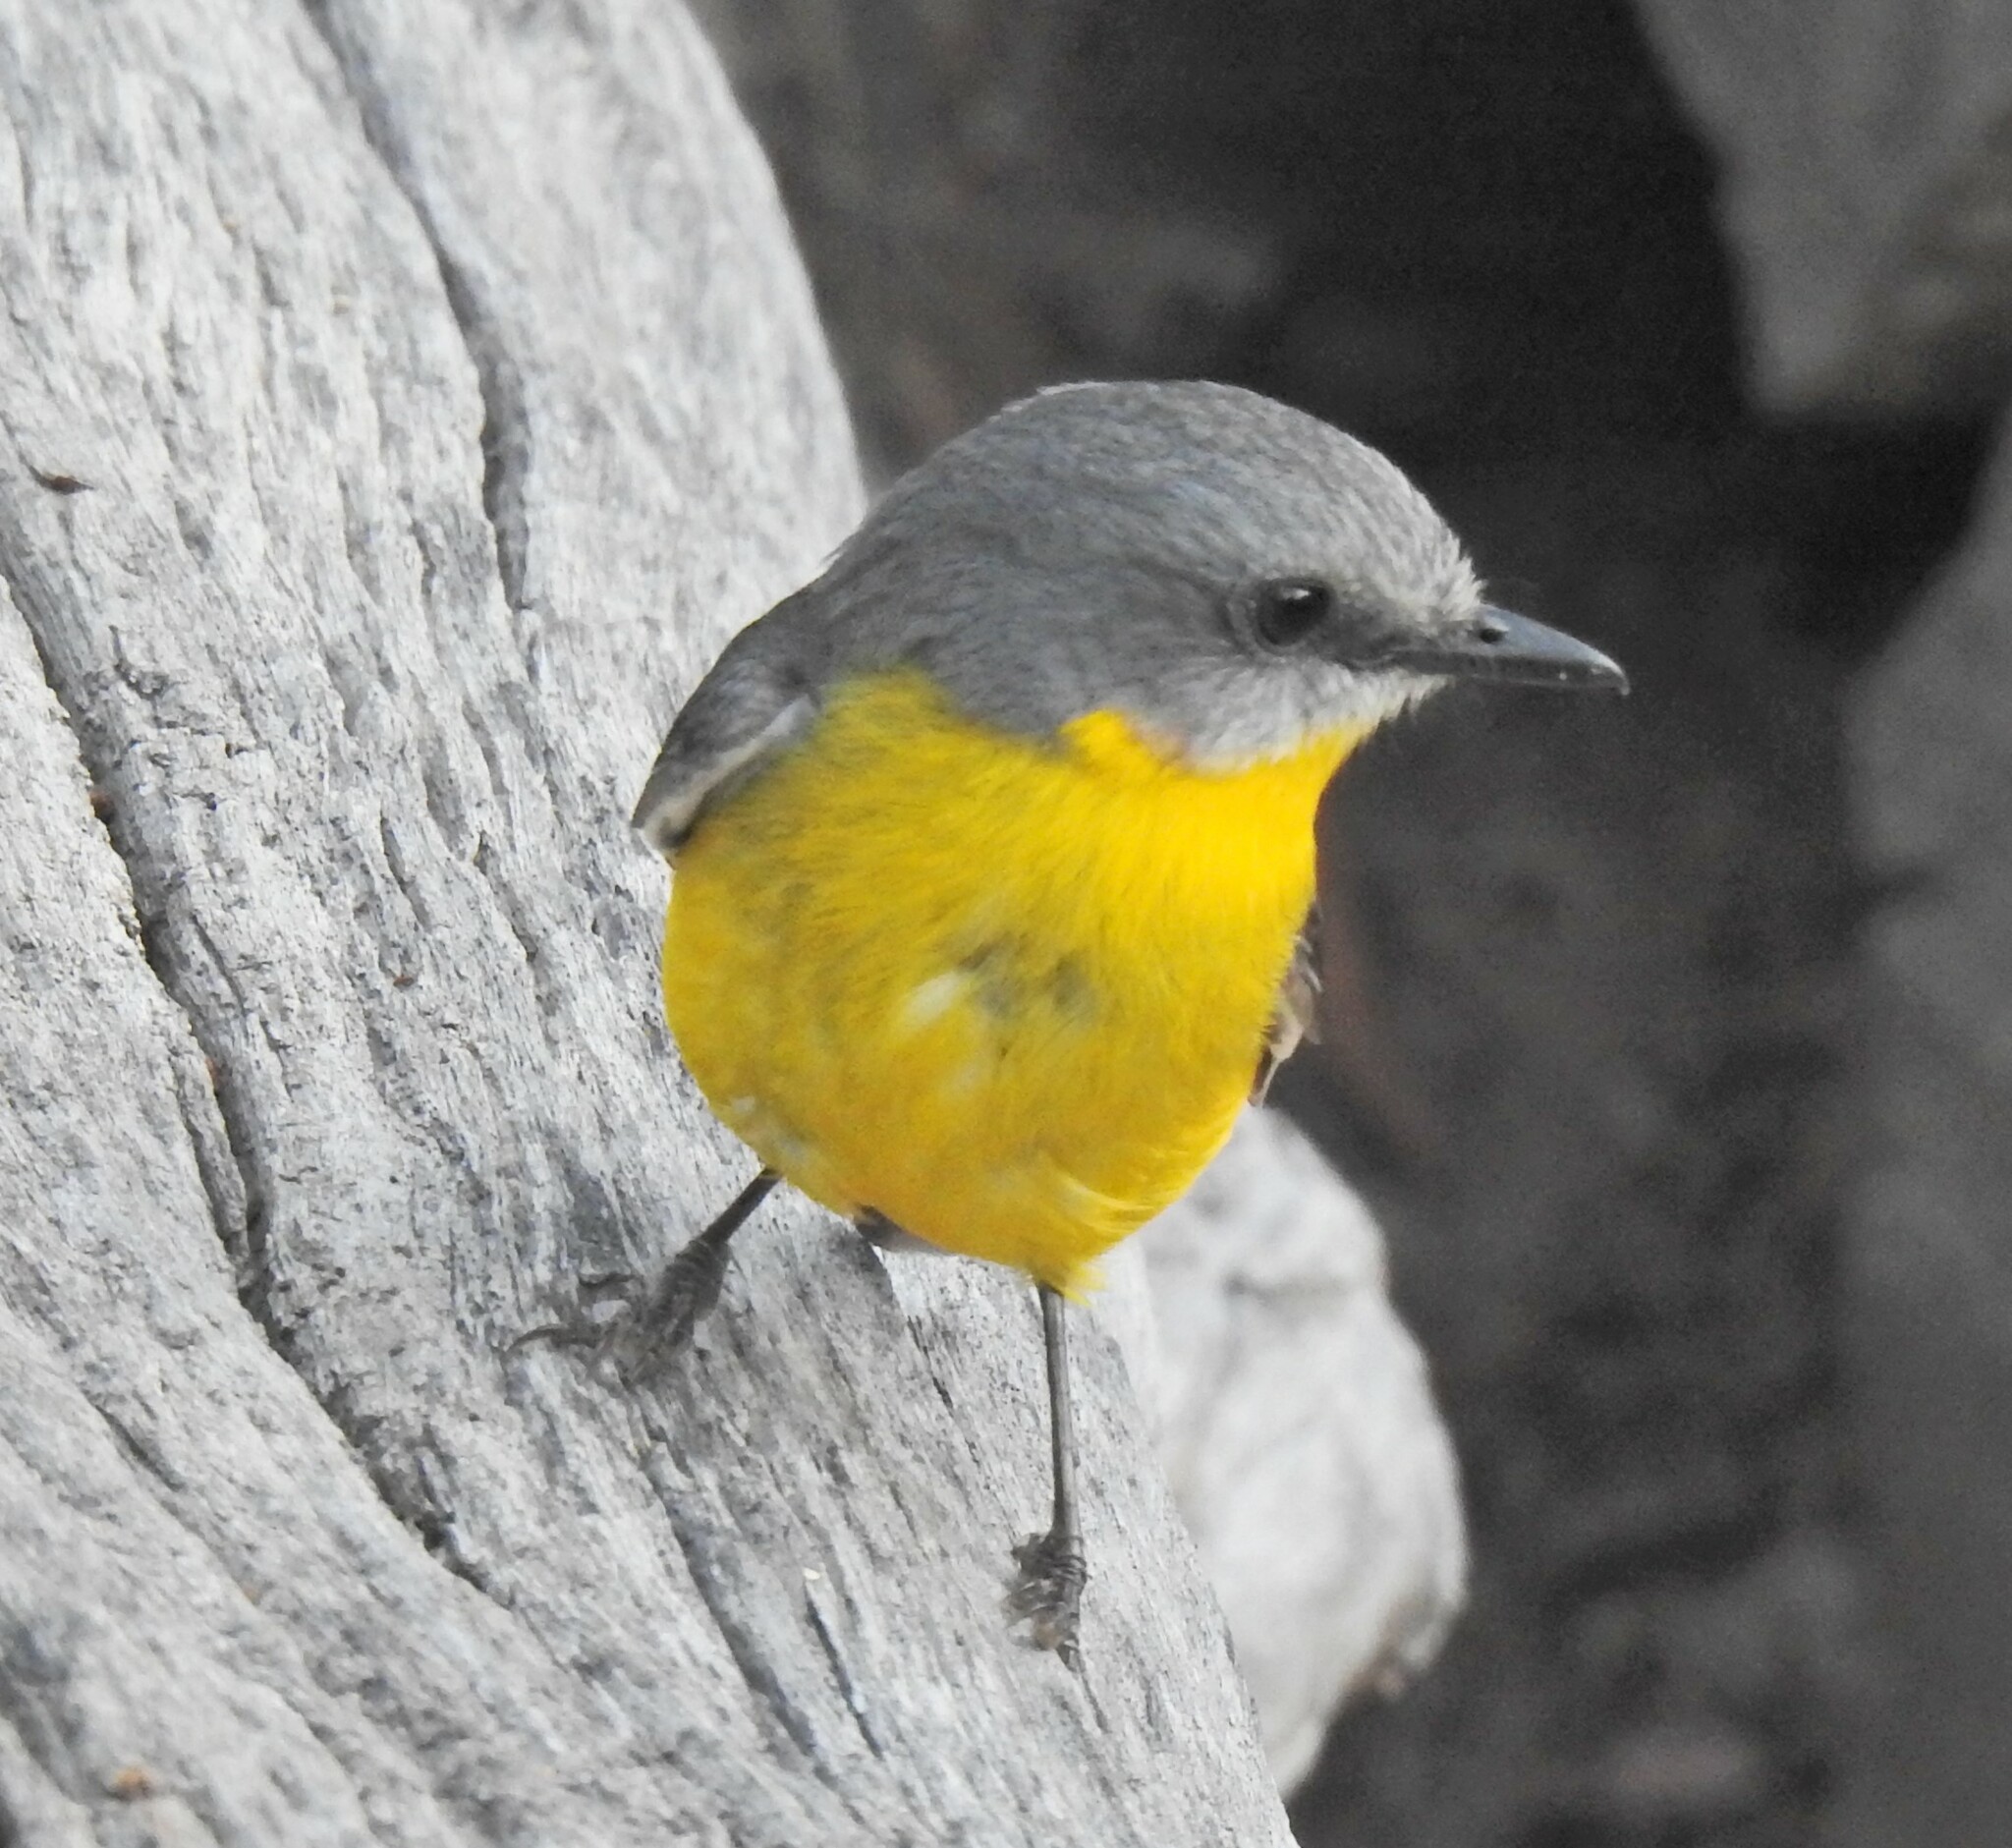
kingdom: Animalia
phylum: Chordata
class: Aves
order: Passeriformes
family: Petroicidae
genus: Eopsaltria
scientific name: Eopsaltria australis
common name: Eastern yellow robin
